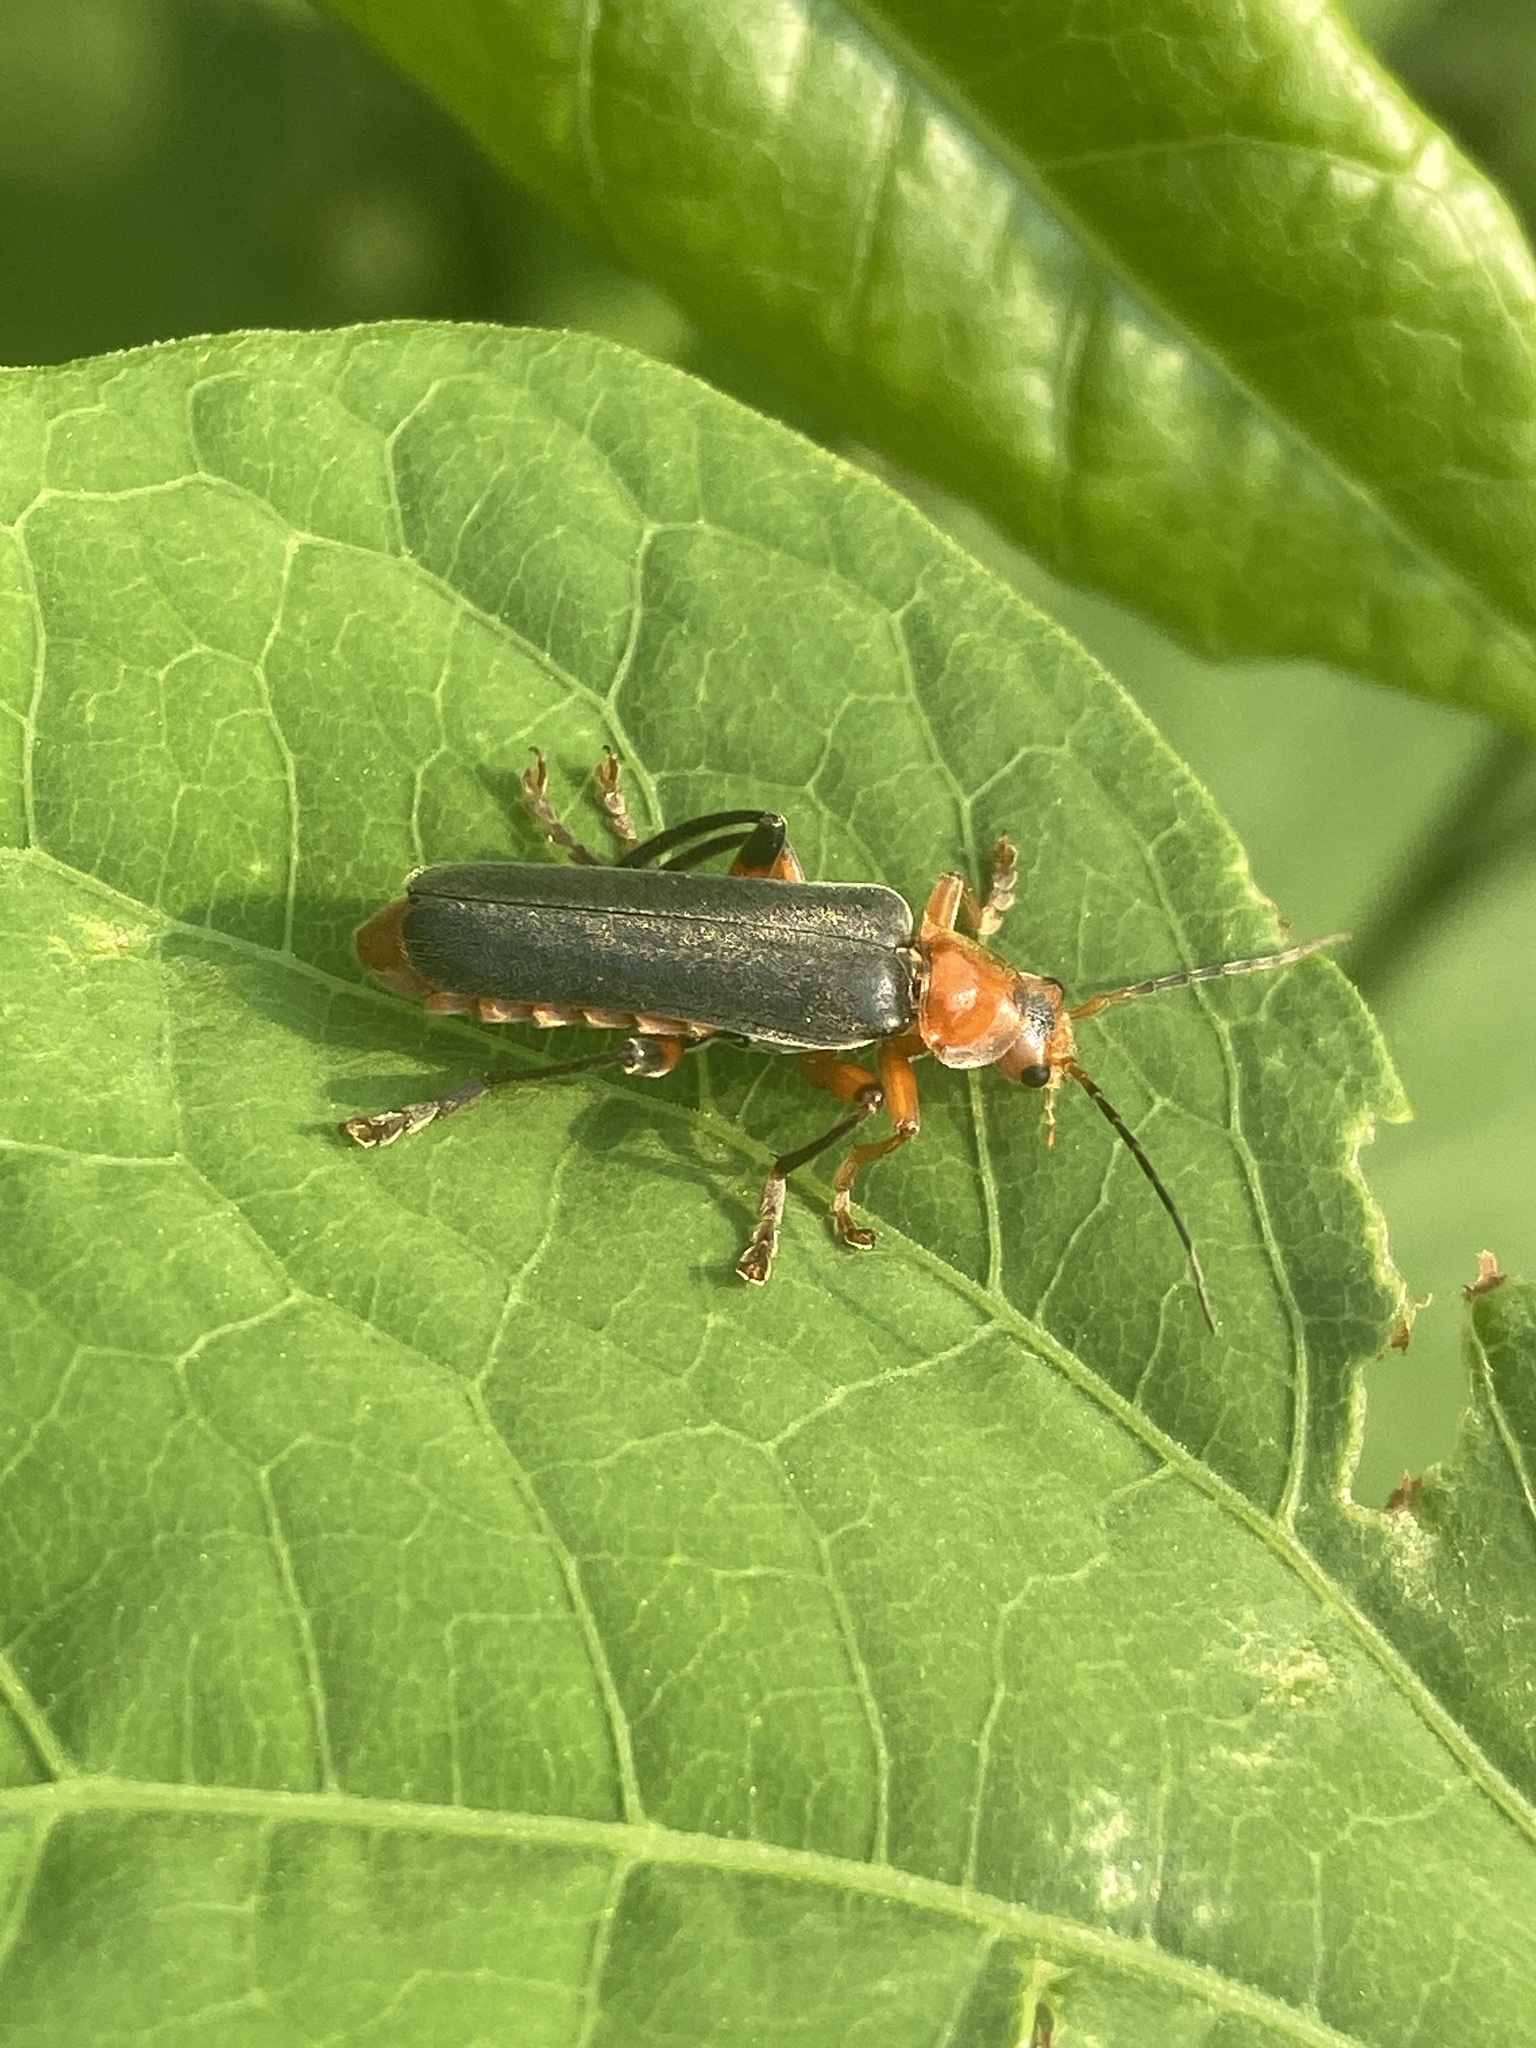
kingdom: Animalia
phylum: Arthropoda
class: Insecta
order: Coleoptera
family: Cantharidae
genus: Cantharis
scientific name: Cantharis livida
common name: Livid soldier beetle
